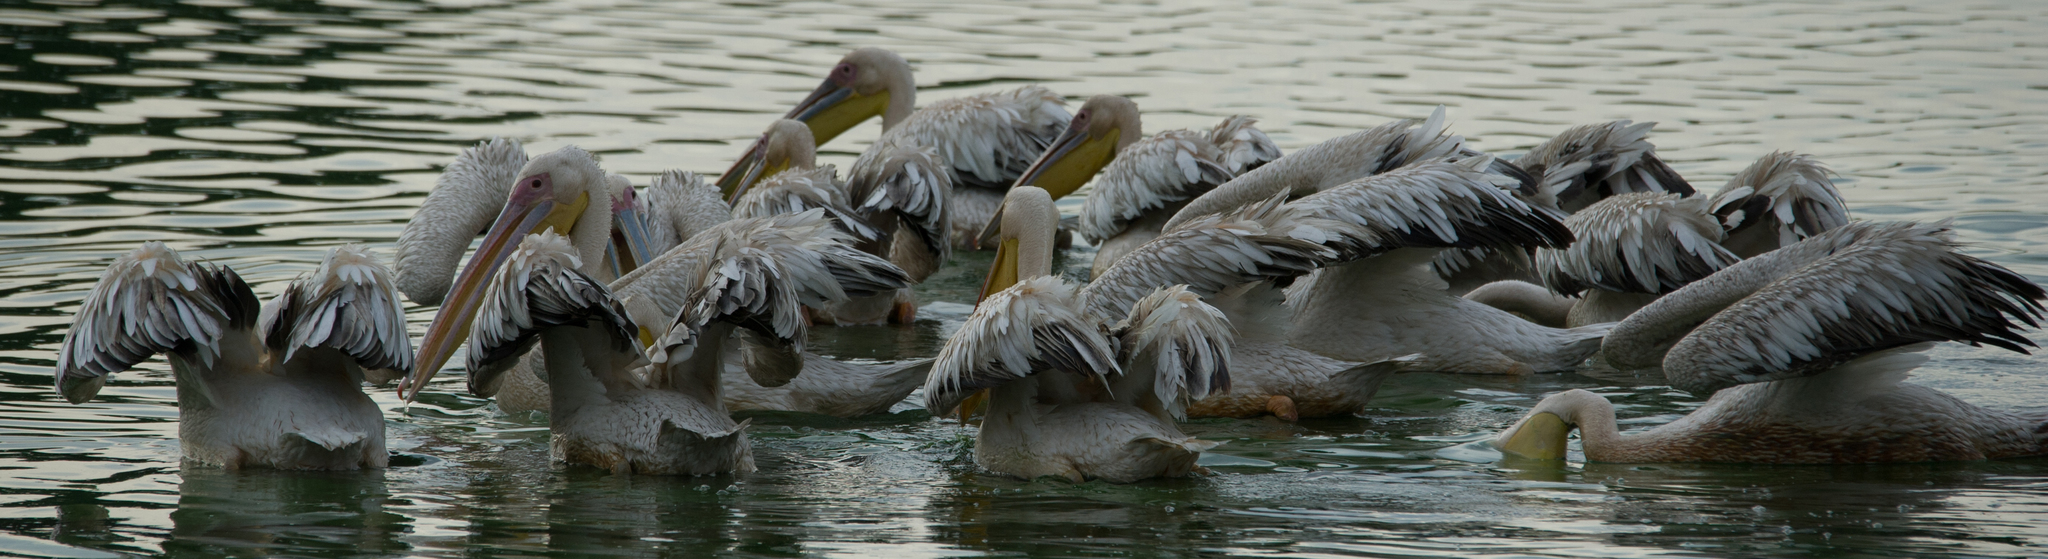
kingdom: Animalia
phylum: Chordata
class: Aves
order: Pelecaniformes
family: Pelecanidae
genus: Pelecanus
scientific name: Pelecanus onocrotalus
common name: Great white pelican
